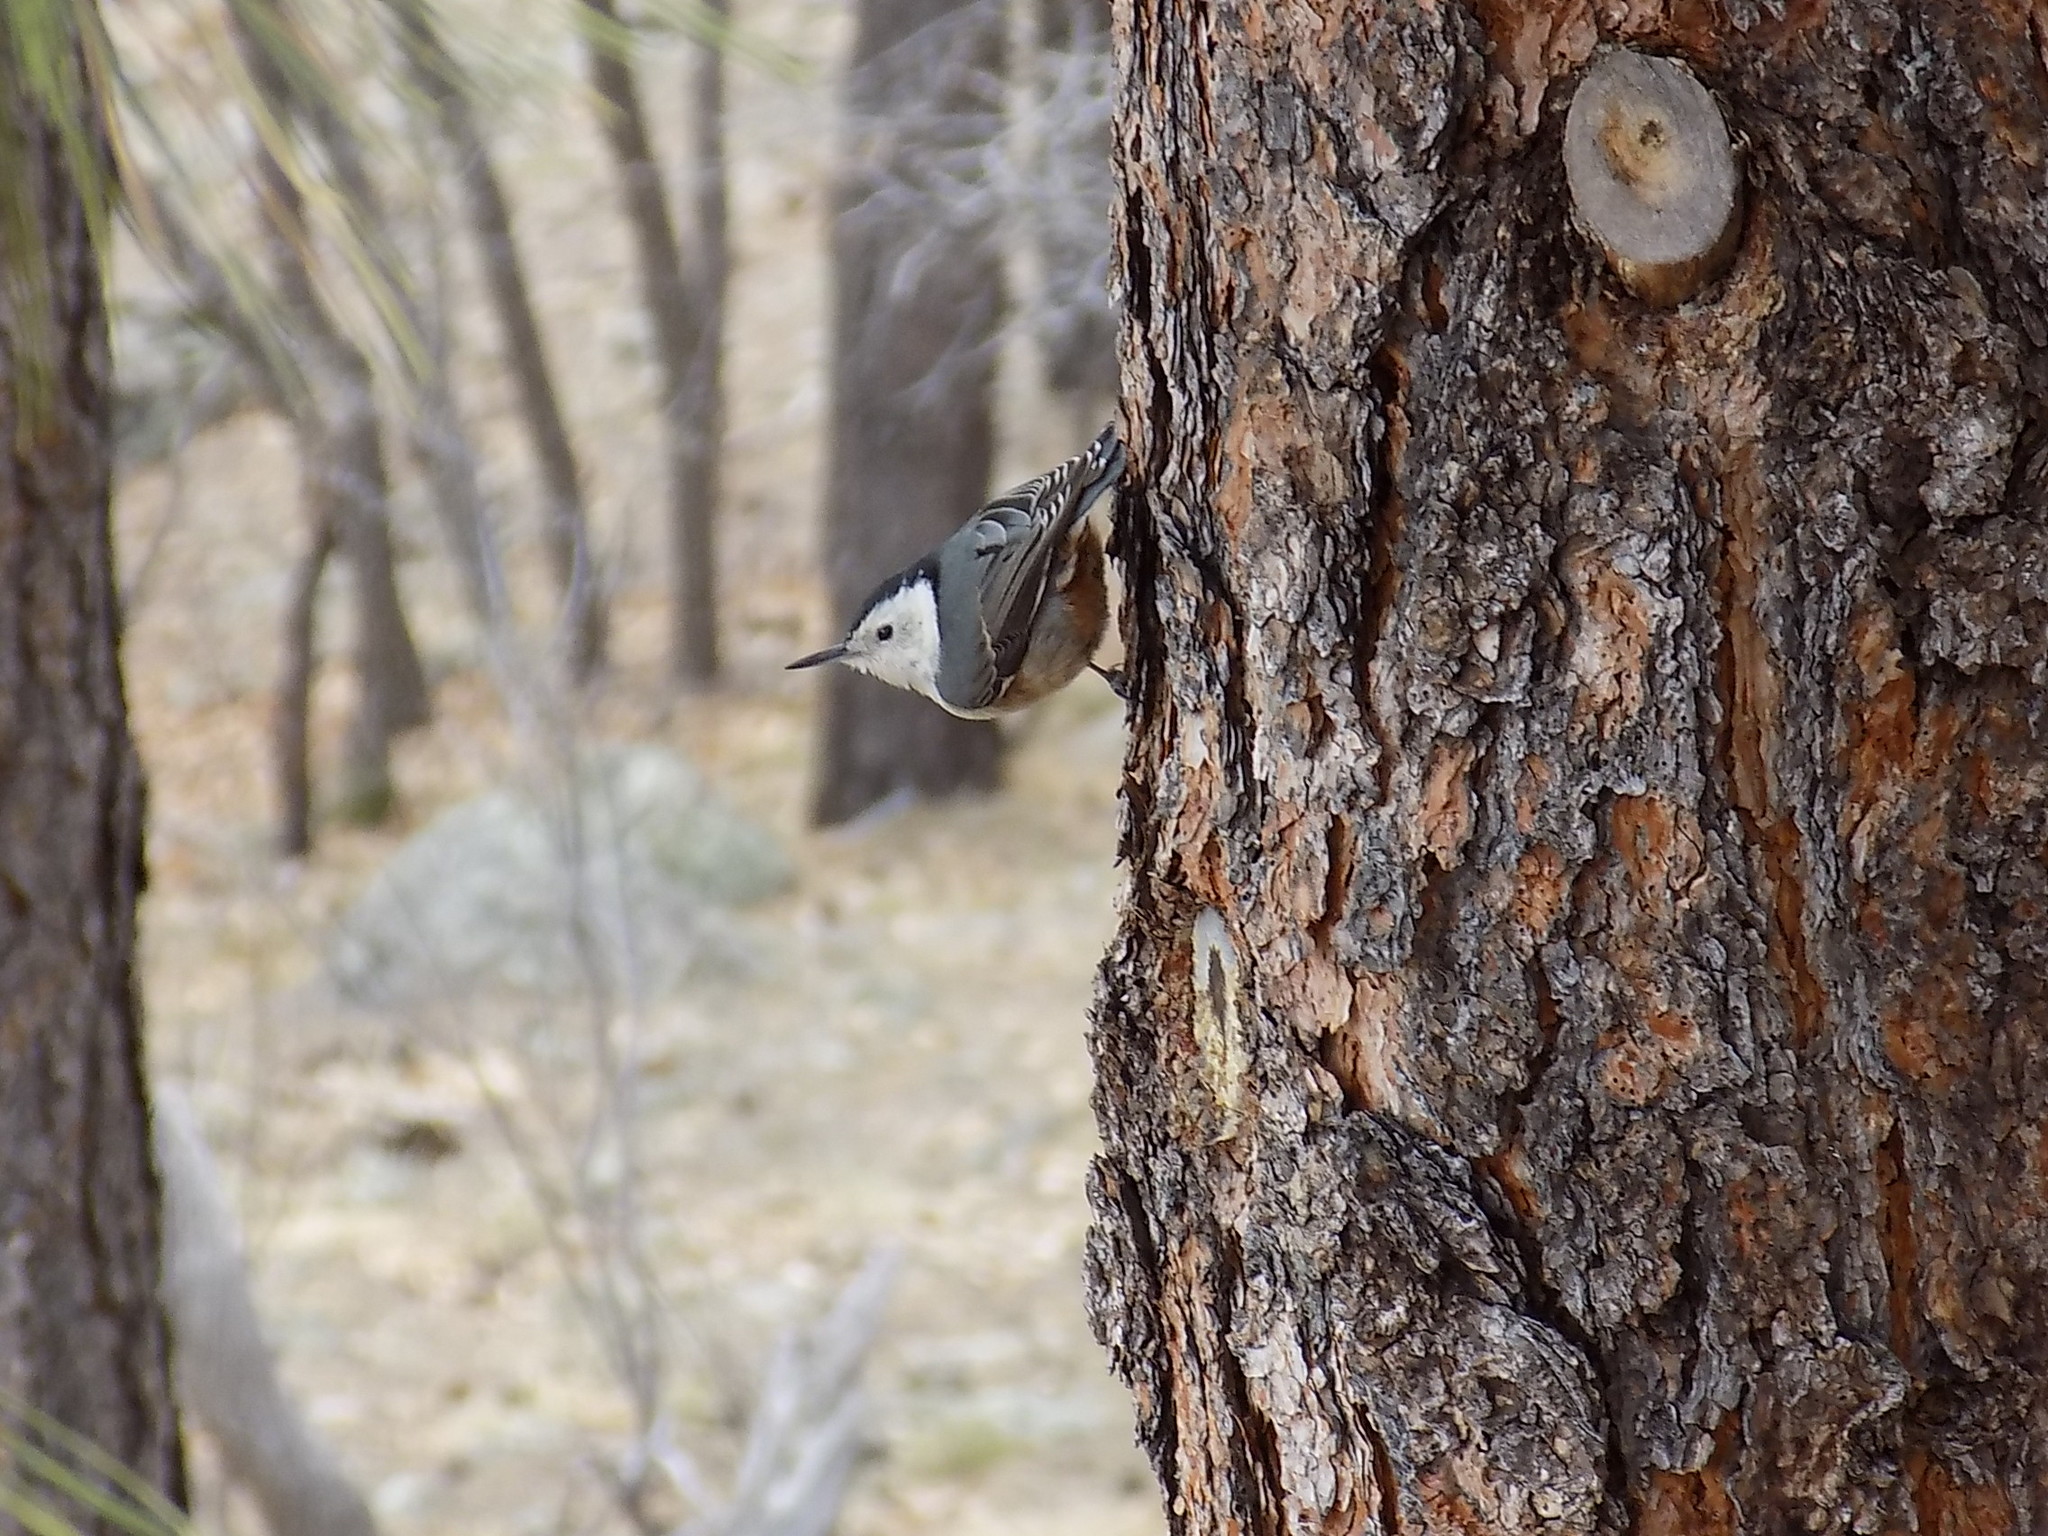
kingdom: Animalia
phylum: Chordata
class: Aves
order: Passeriformes
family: Sittidae
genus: Sitta
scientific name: Sitta carolinensis
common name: White-breasted nuthatch
